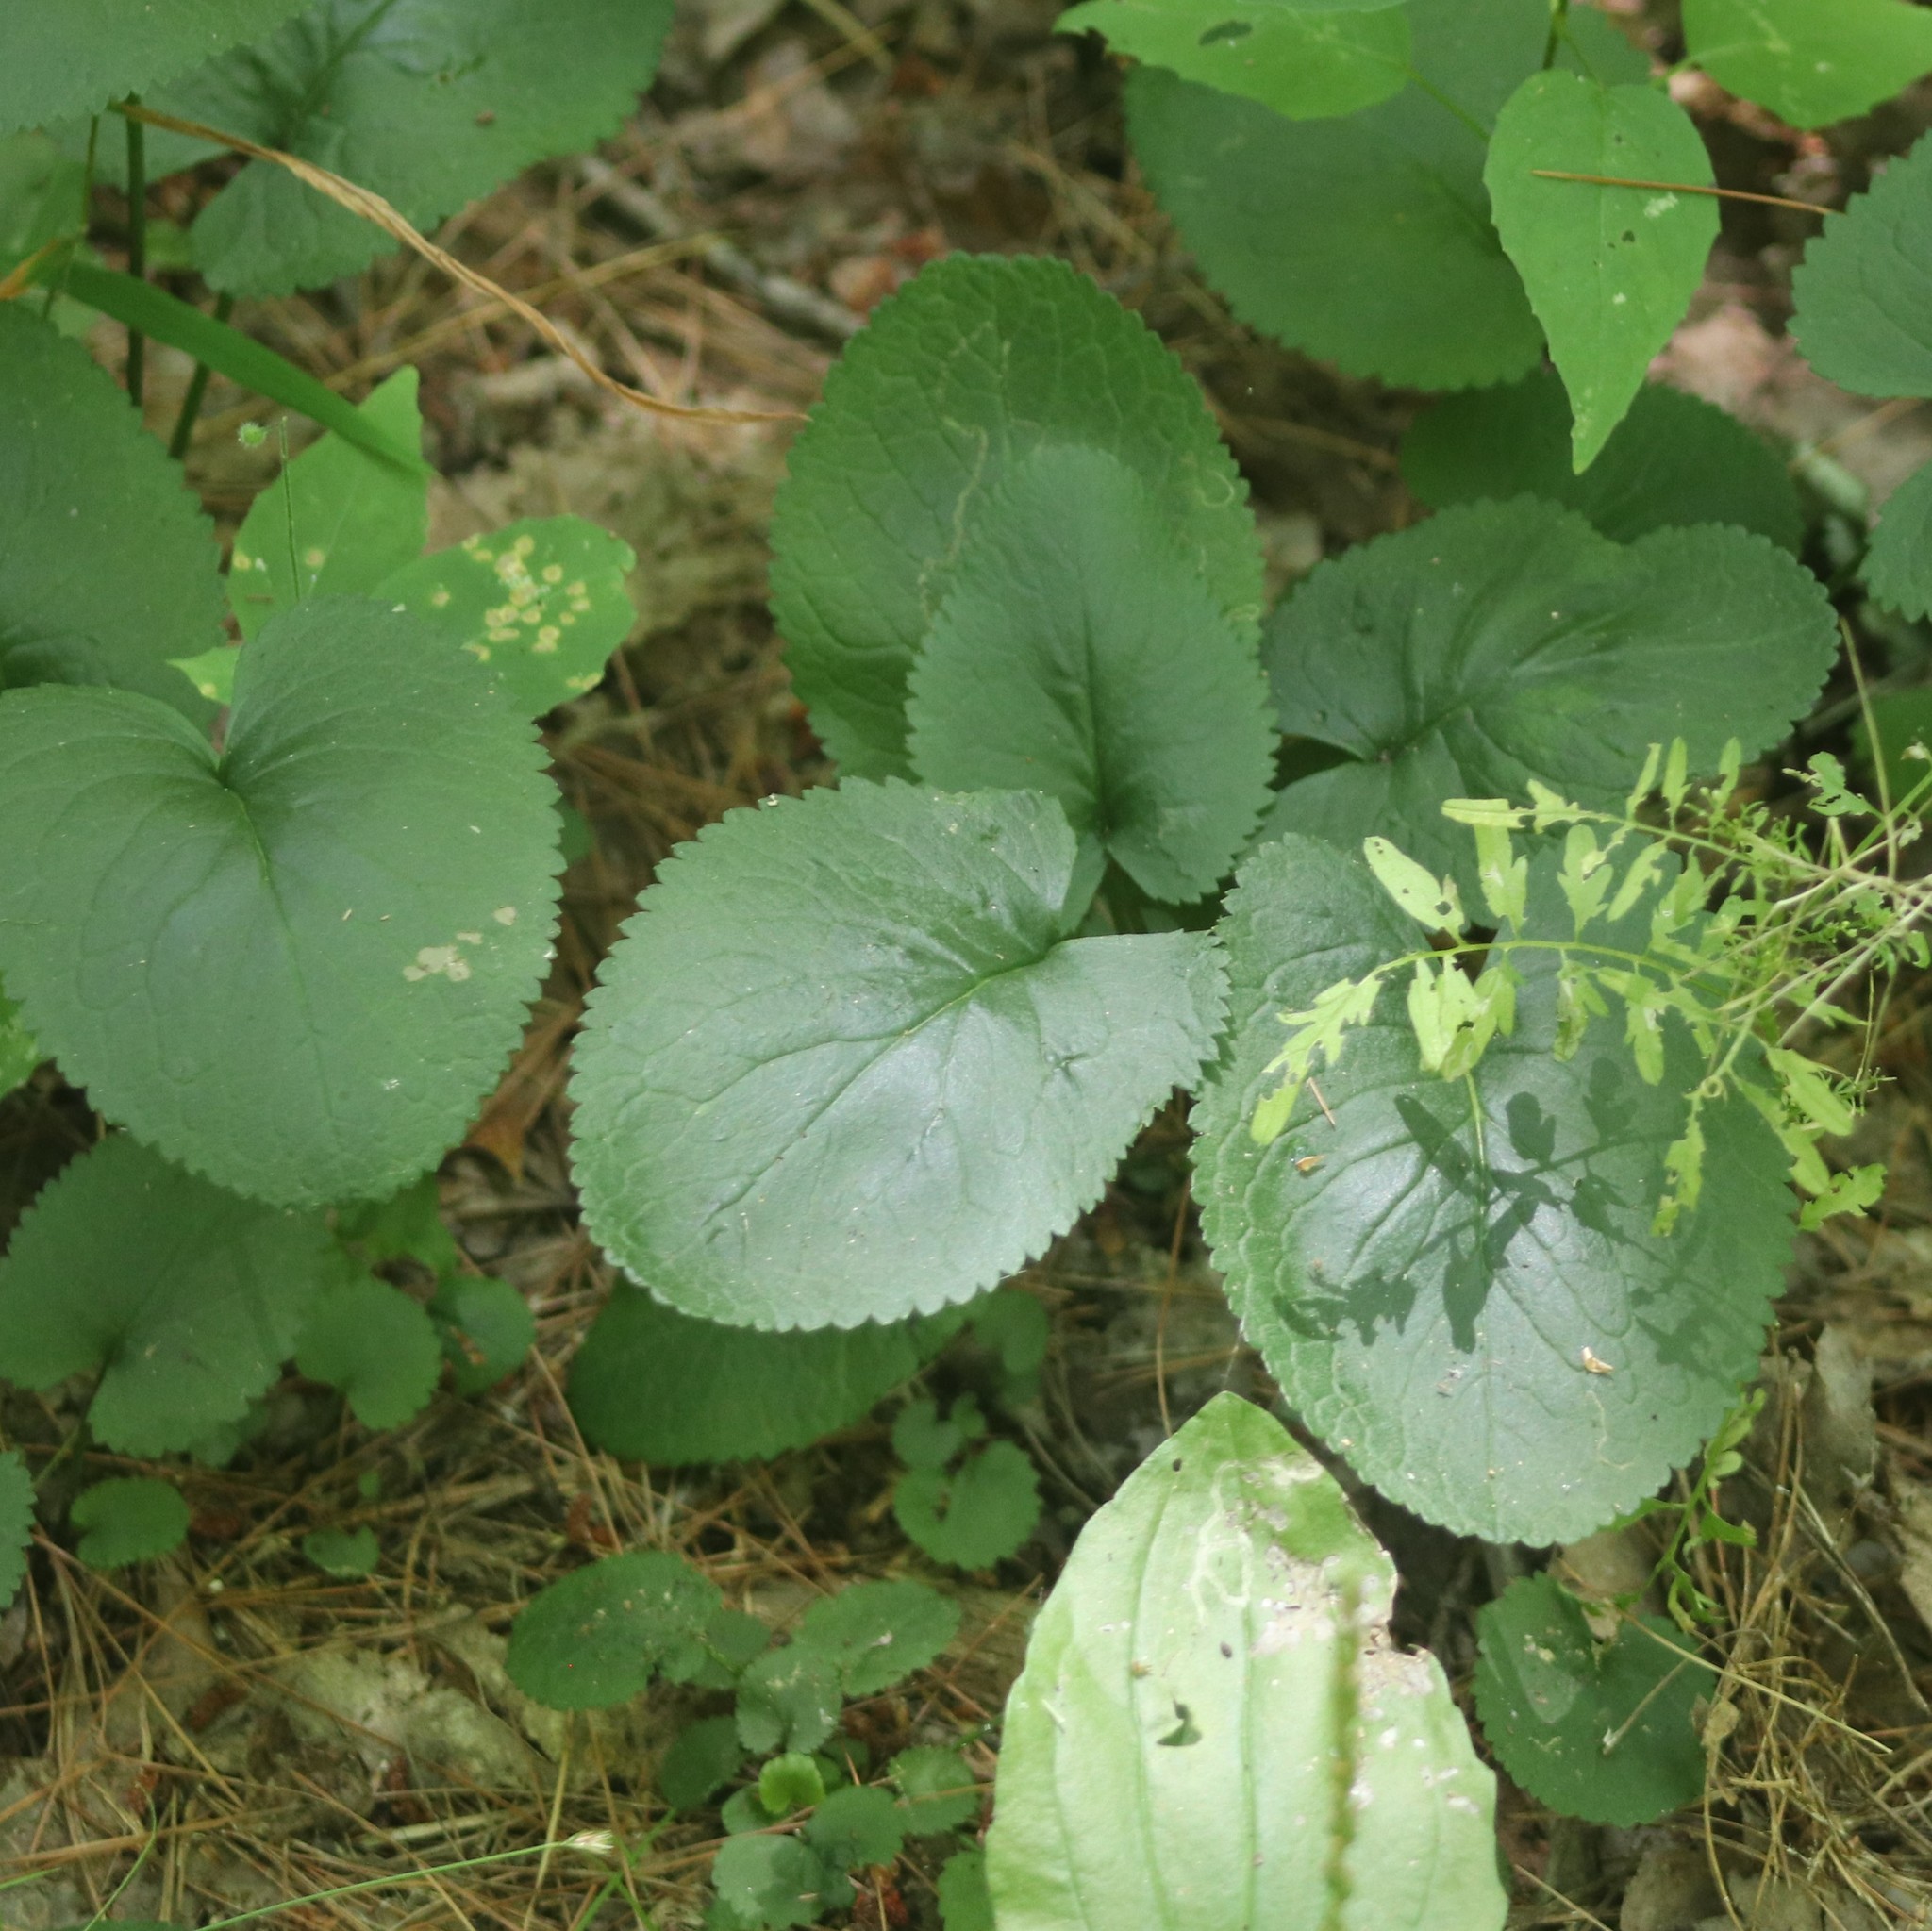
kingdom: Plantae
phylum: Tracheophyta
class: Magnoliopsida
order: Asterales
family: Asteraceae
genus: Packera
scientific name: Packera aurea
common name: Golden groundsel
